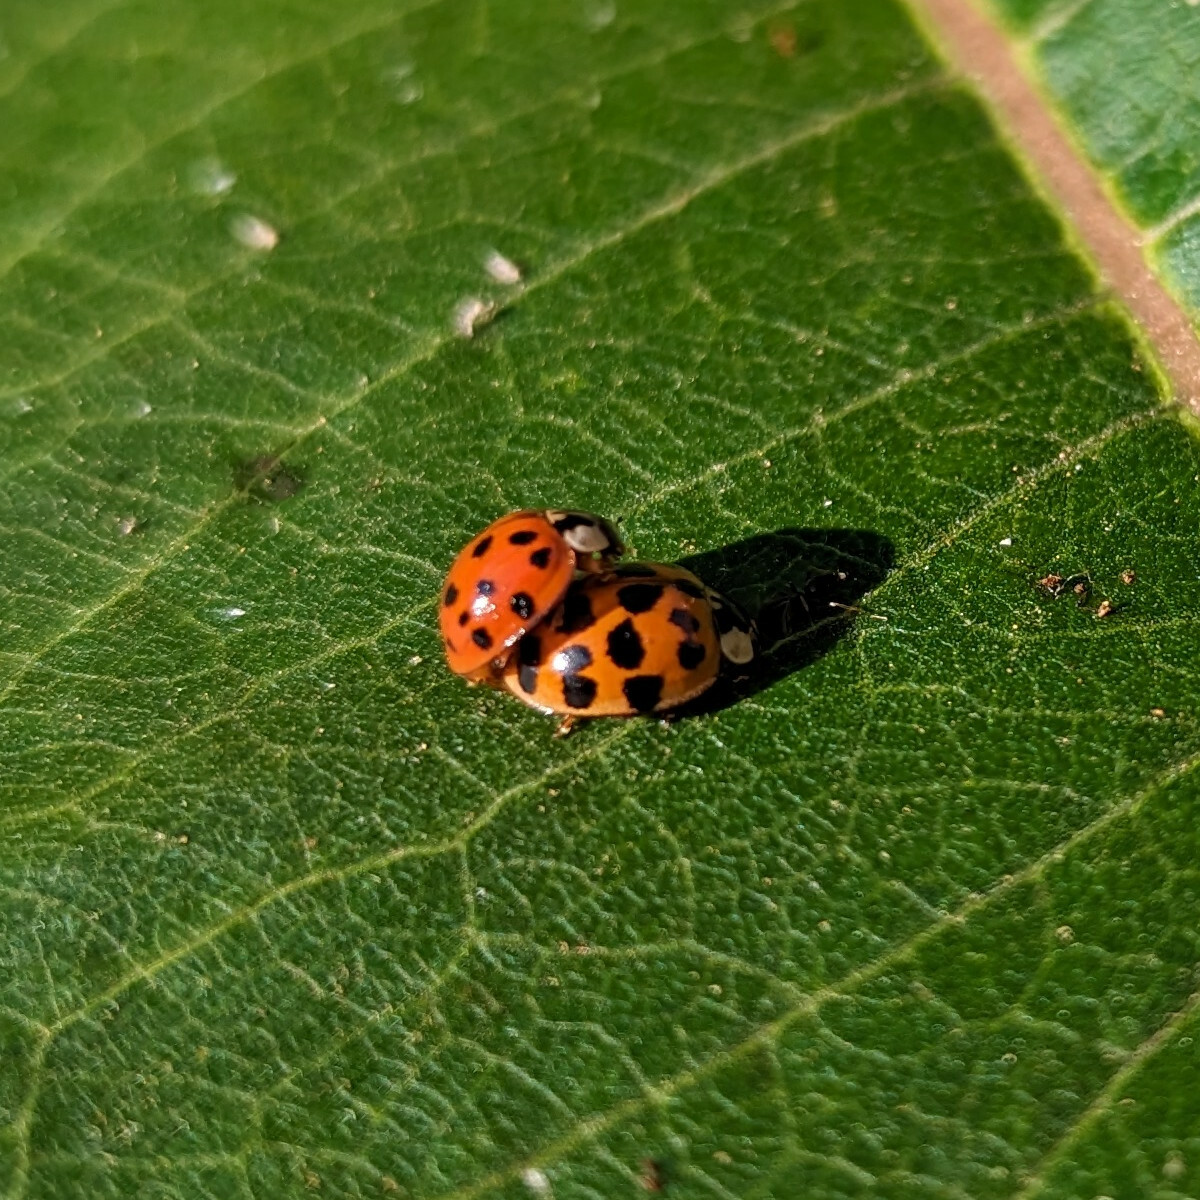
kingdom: Animalia
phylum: Arthropoda
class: Insecta
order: Coleoptera
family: Coccinellidae
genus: Harmonia
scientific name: Harmonia axyridis
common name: Harlequin ladybird
